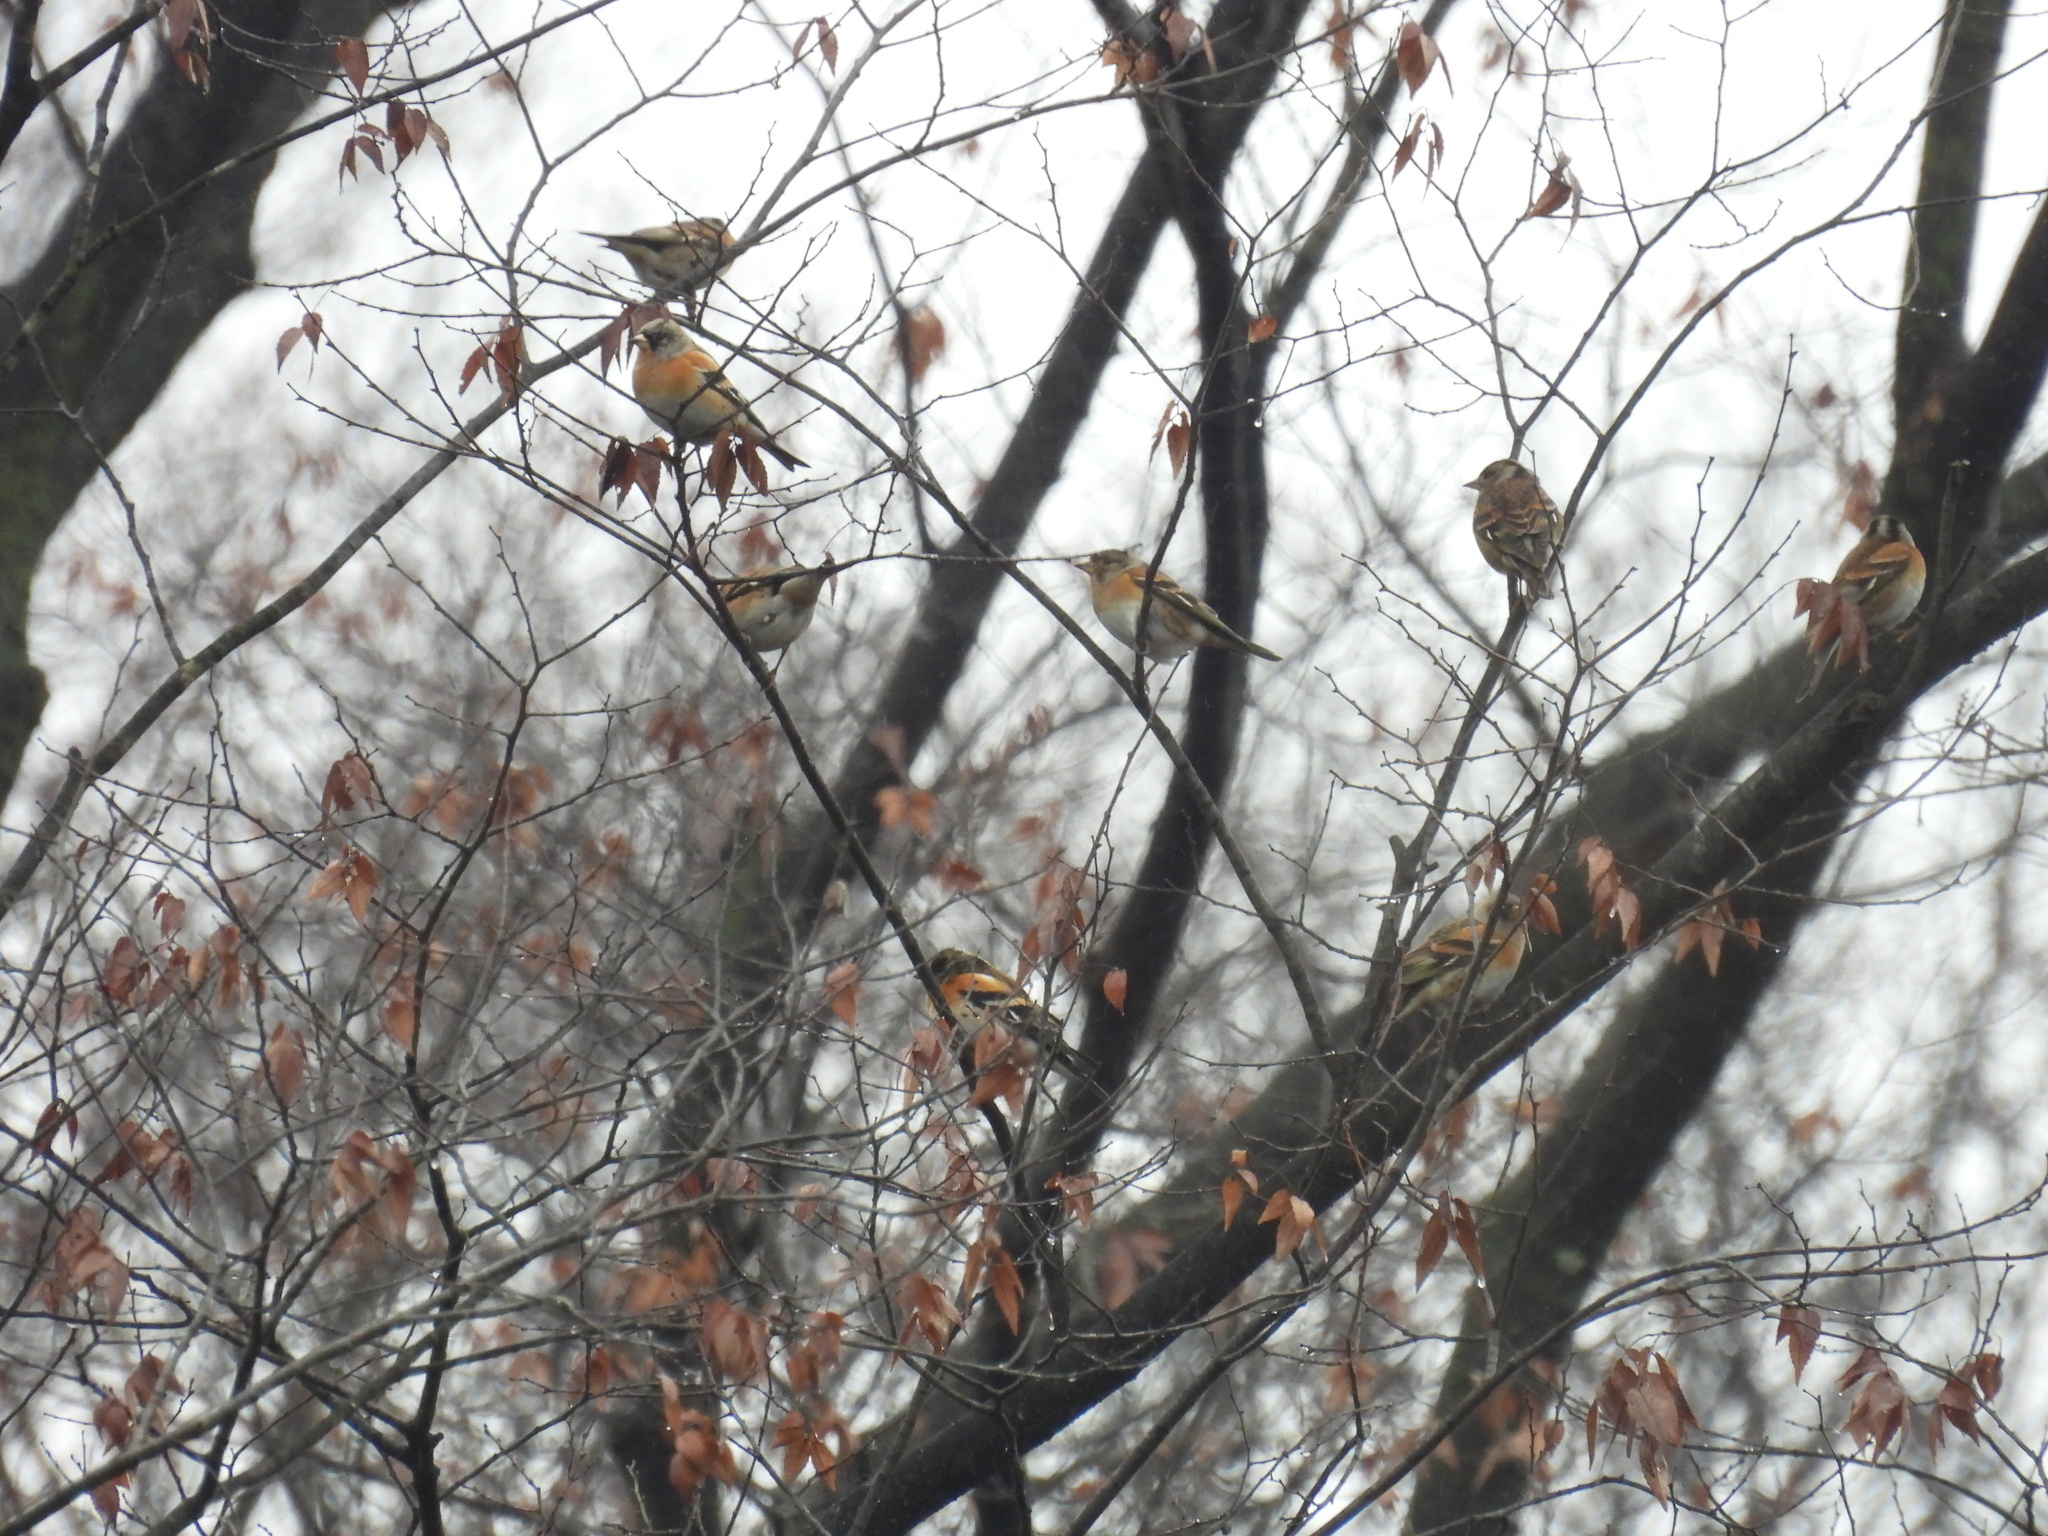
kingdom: Animalia
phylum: Chordata
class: Aves
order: Passeriformes
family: Fringillidae
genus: Fringilla
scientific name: Fringilla montifringilla
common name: Brambling
